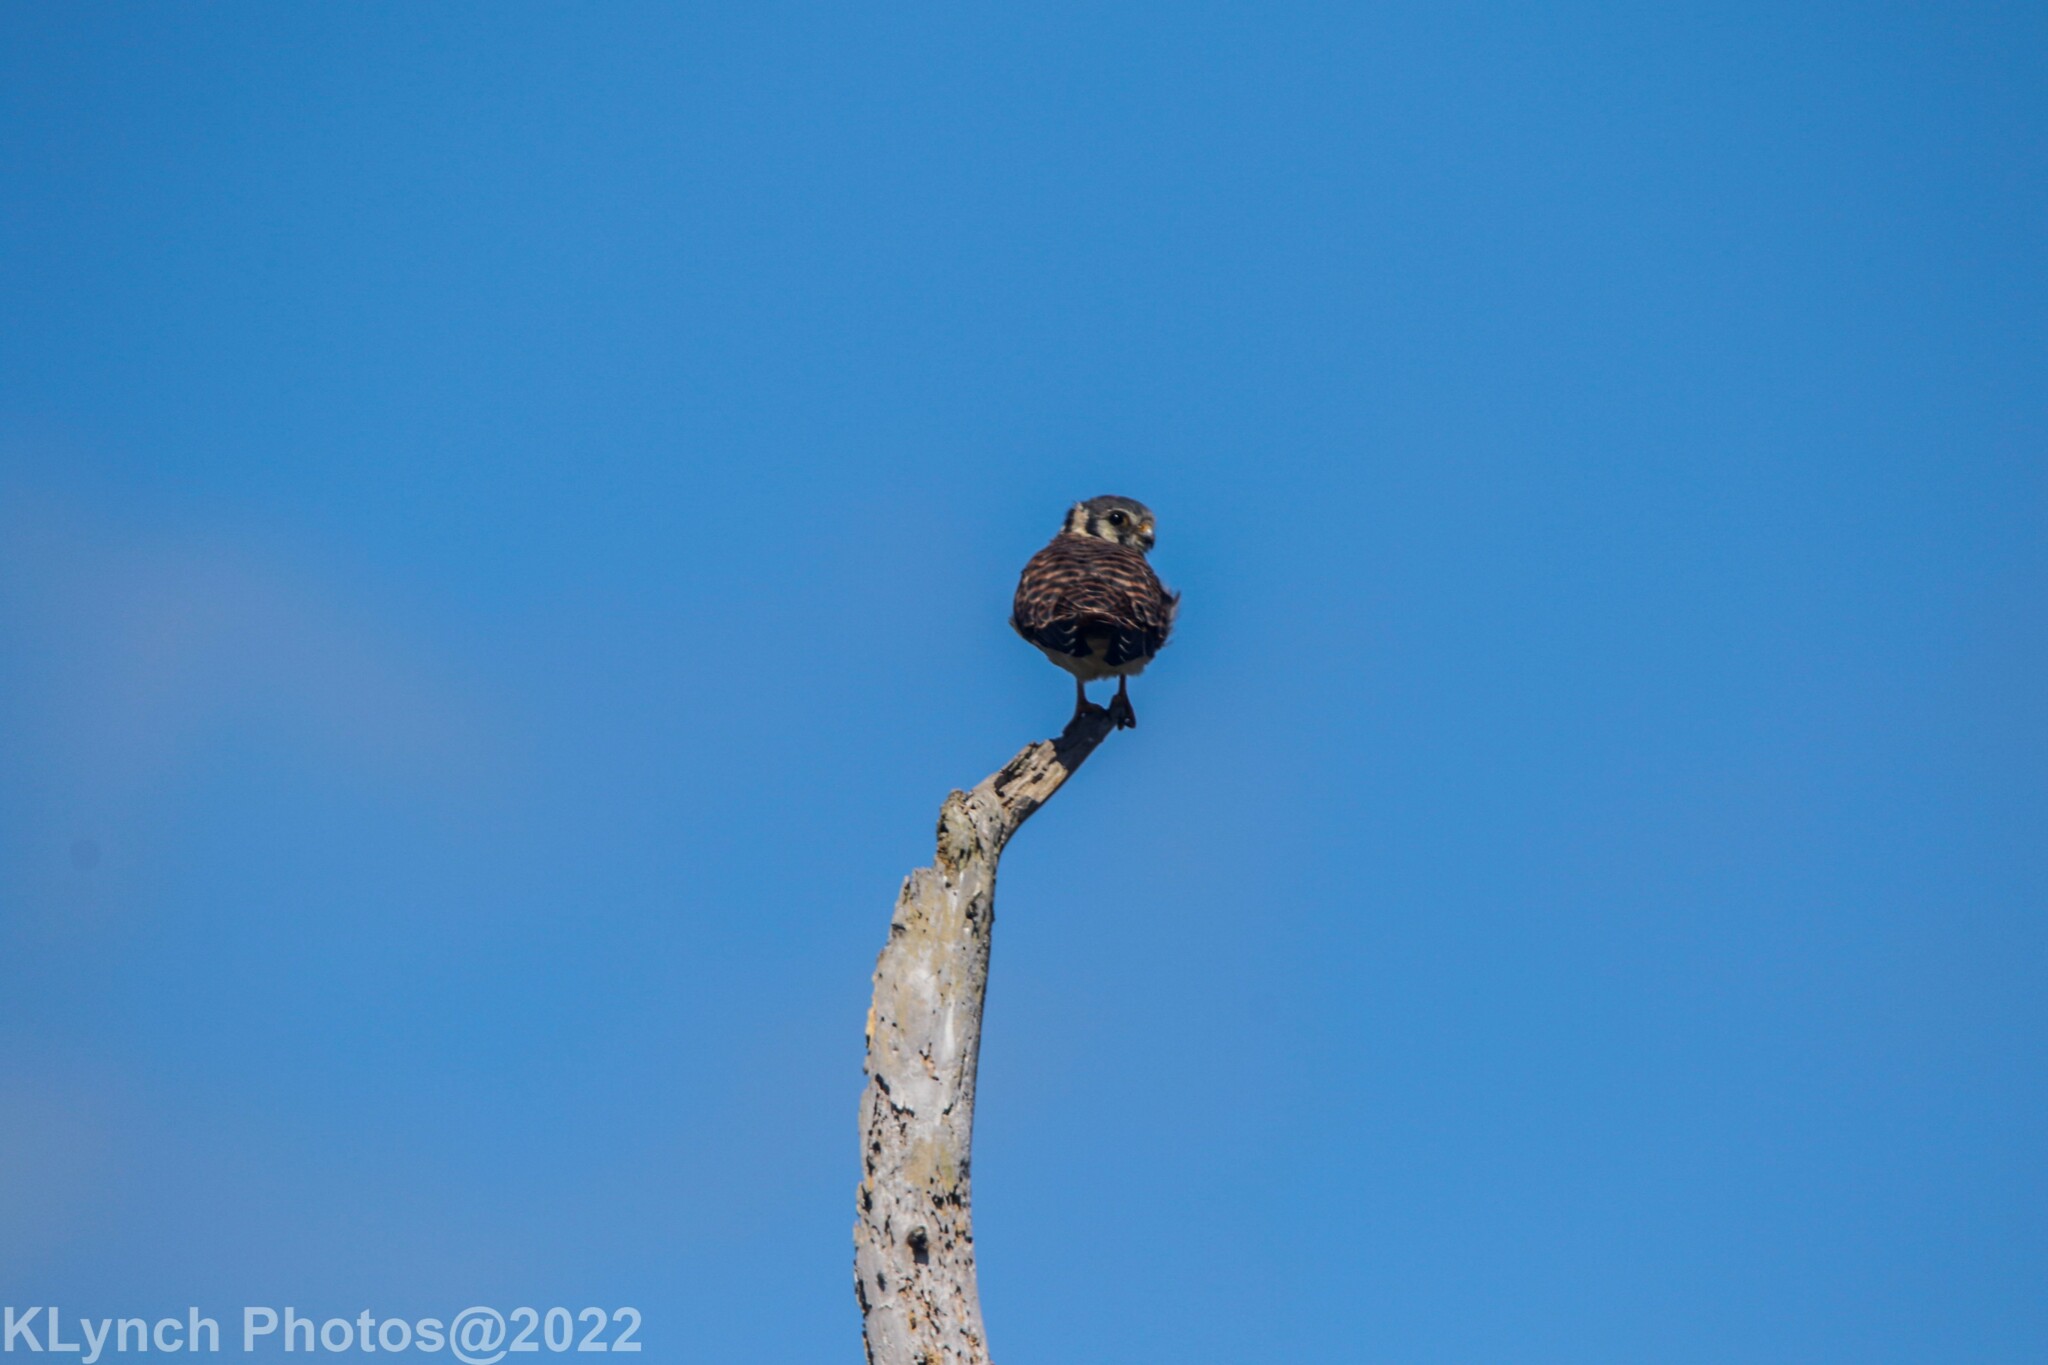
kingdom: Animalia
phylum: Chordata
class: Aves
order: Falconiformes
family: Falconidae
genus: Falco
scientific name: Falco sparverius
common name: American kestrel
